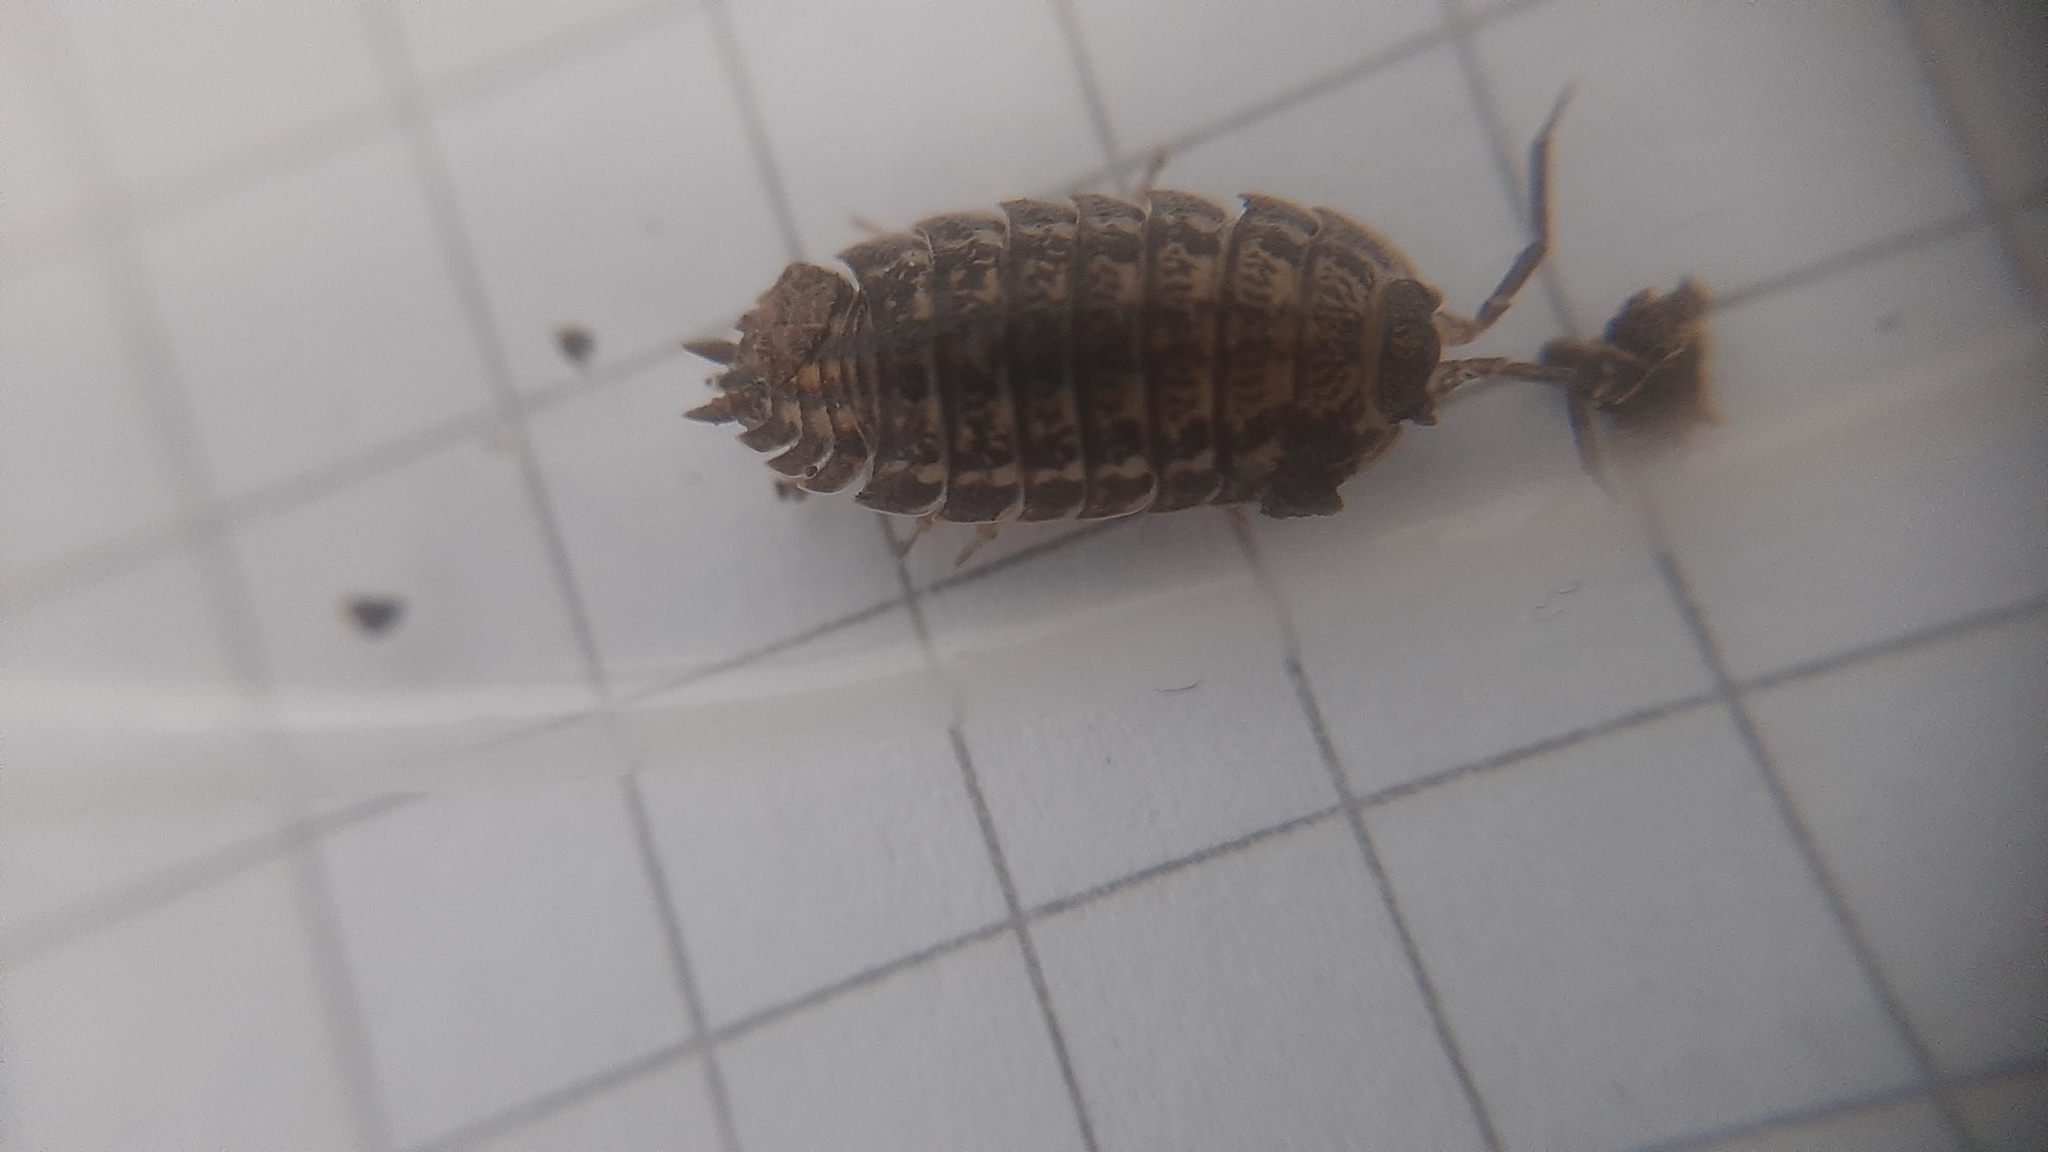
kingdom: Animalia
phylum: Arthropoda
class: Malacostraca
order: Isopoda
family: Trachelipodidae
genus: Trachelipus
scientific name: Trachelipus rathkii
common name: Isopod
